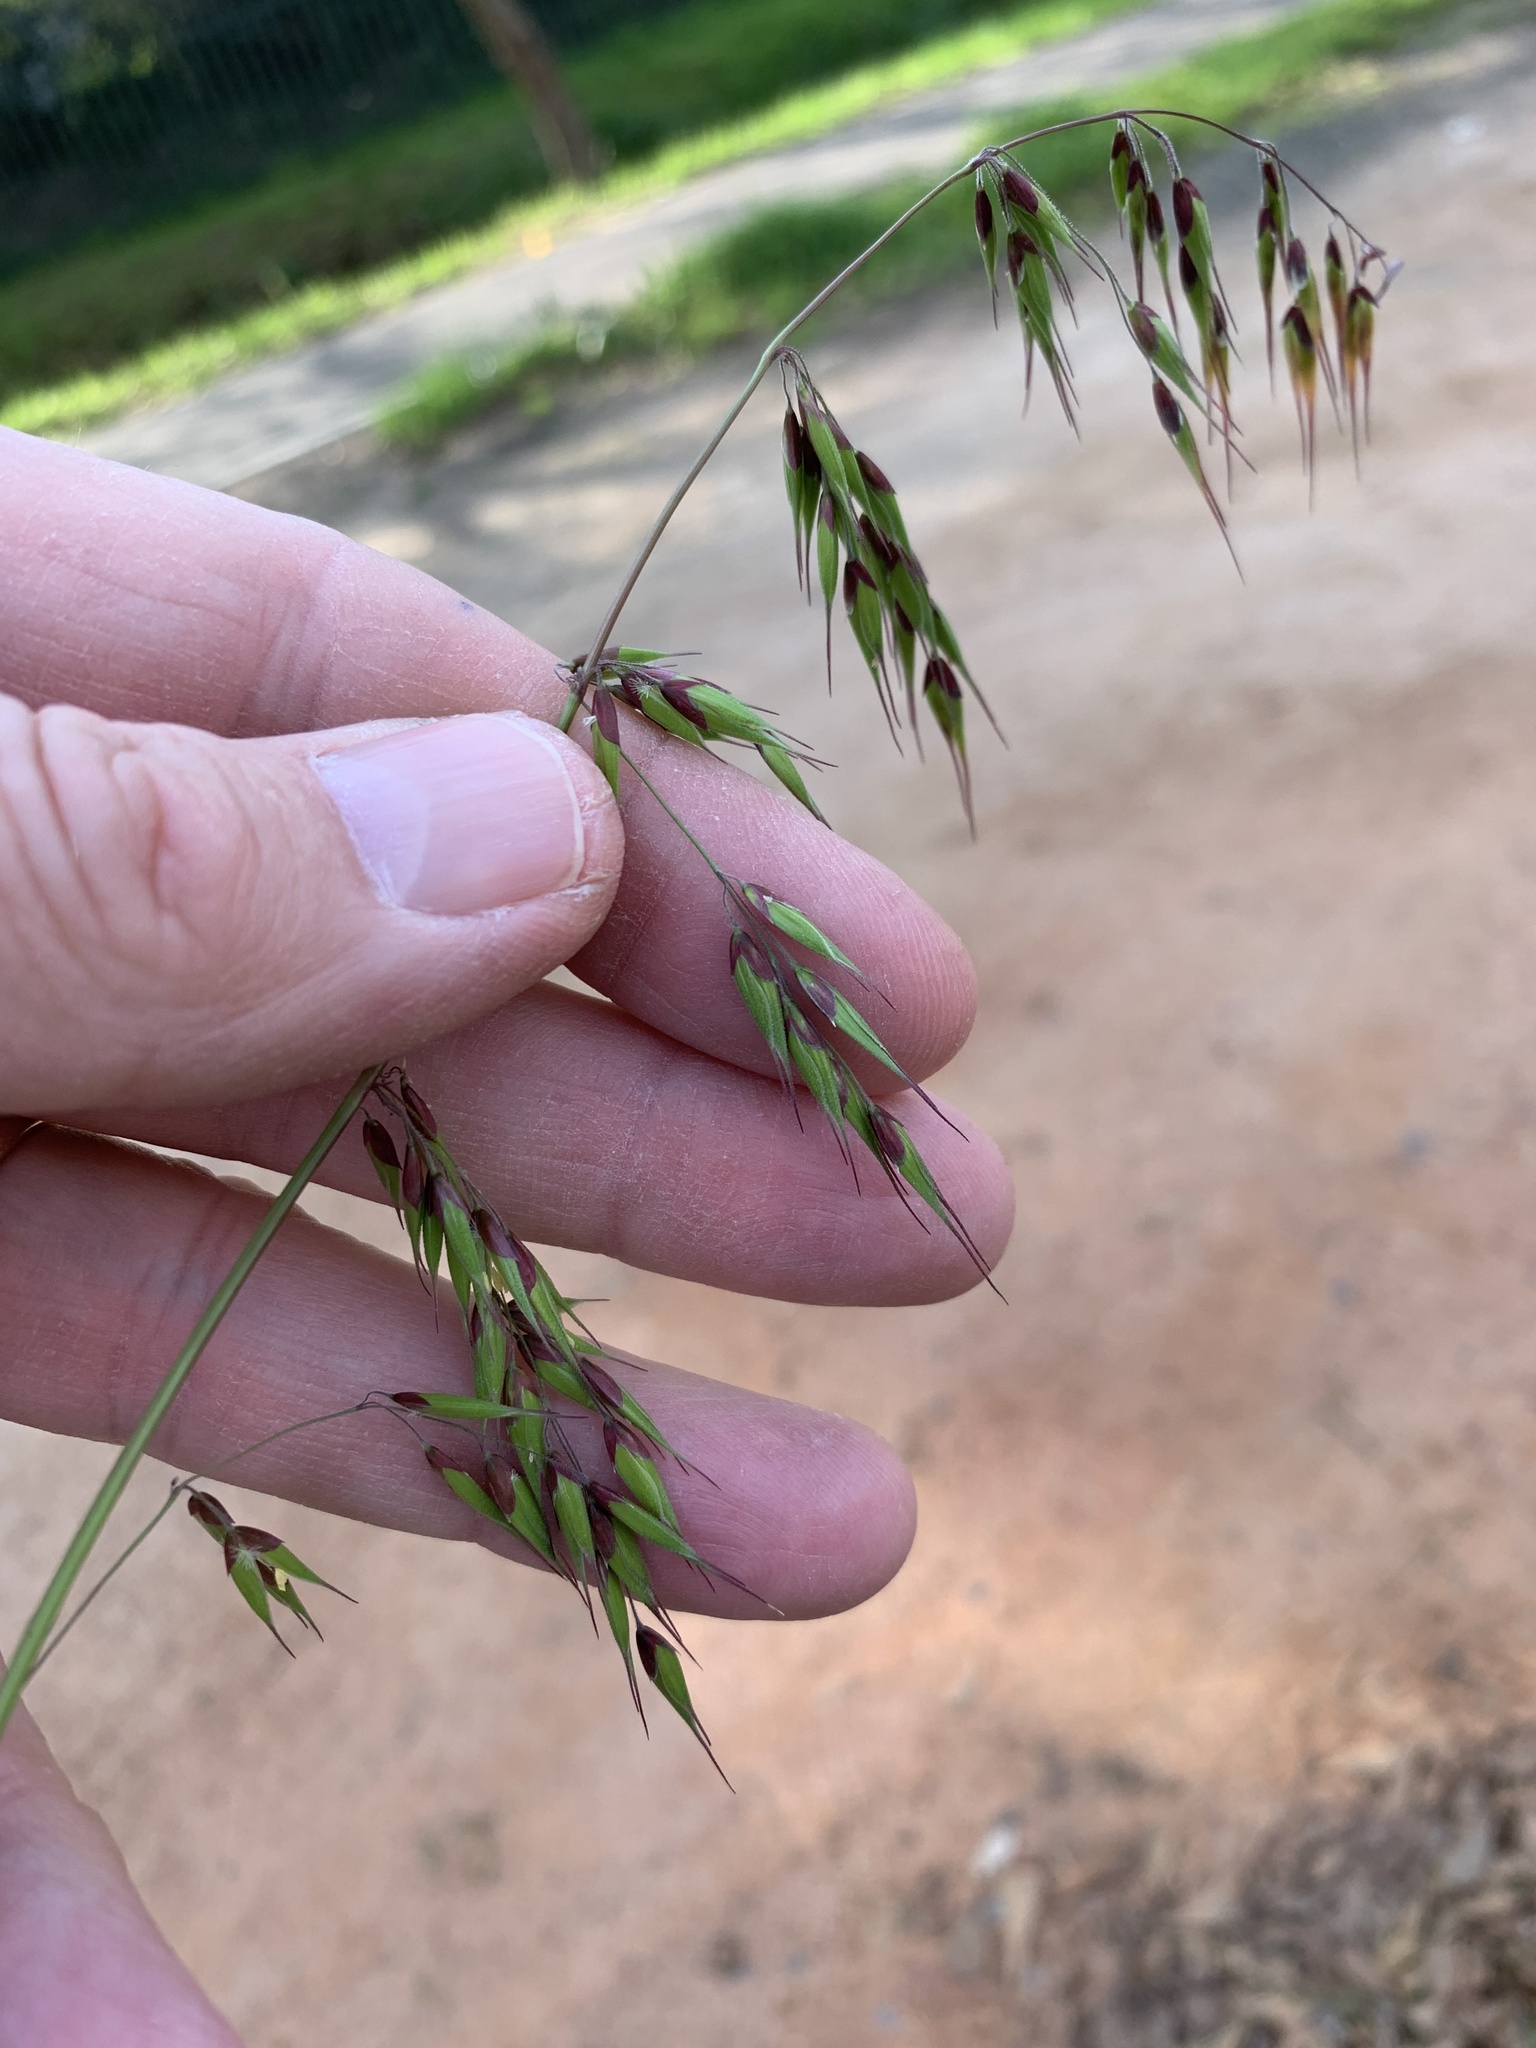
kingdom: Plantae
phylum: Tracheophyta
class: Liliopsida
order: Poales
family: Poaceae
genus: Ehrharta
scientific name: Ehrharta longiflora
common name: Longflowered veldtgrass
